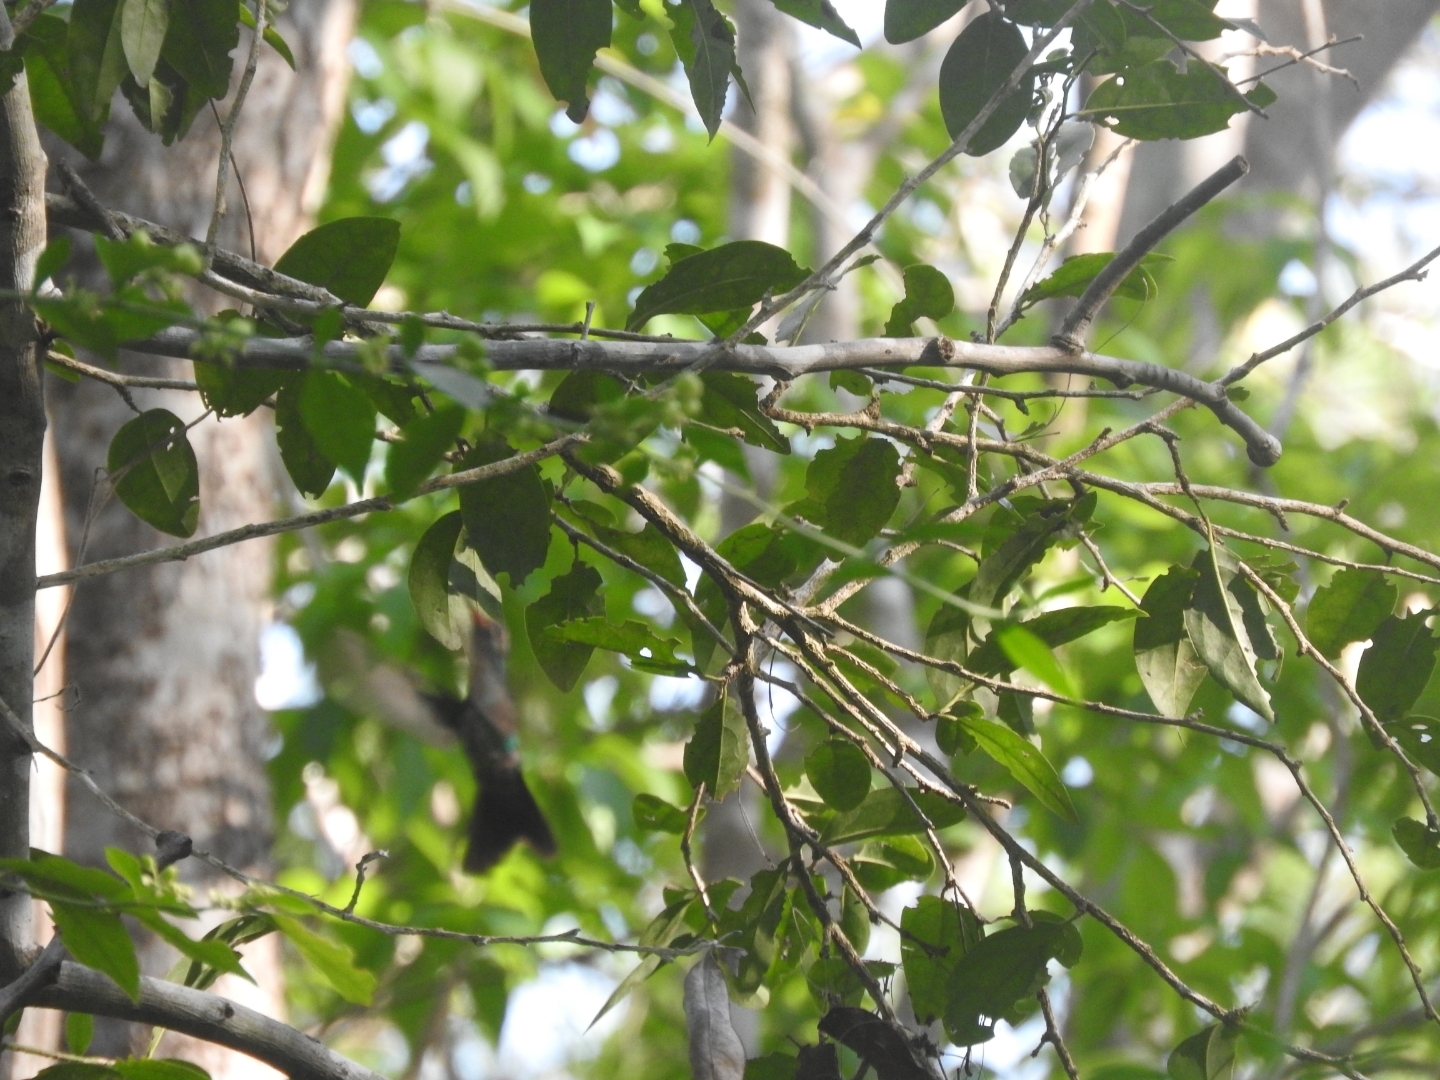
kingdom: Animalia
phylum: Chordata
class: Aves
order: Apodiformes
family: Trochilidae
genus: Cynanthus
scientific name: Cynanthus canivetii
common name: Canivet's emerald
